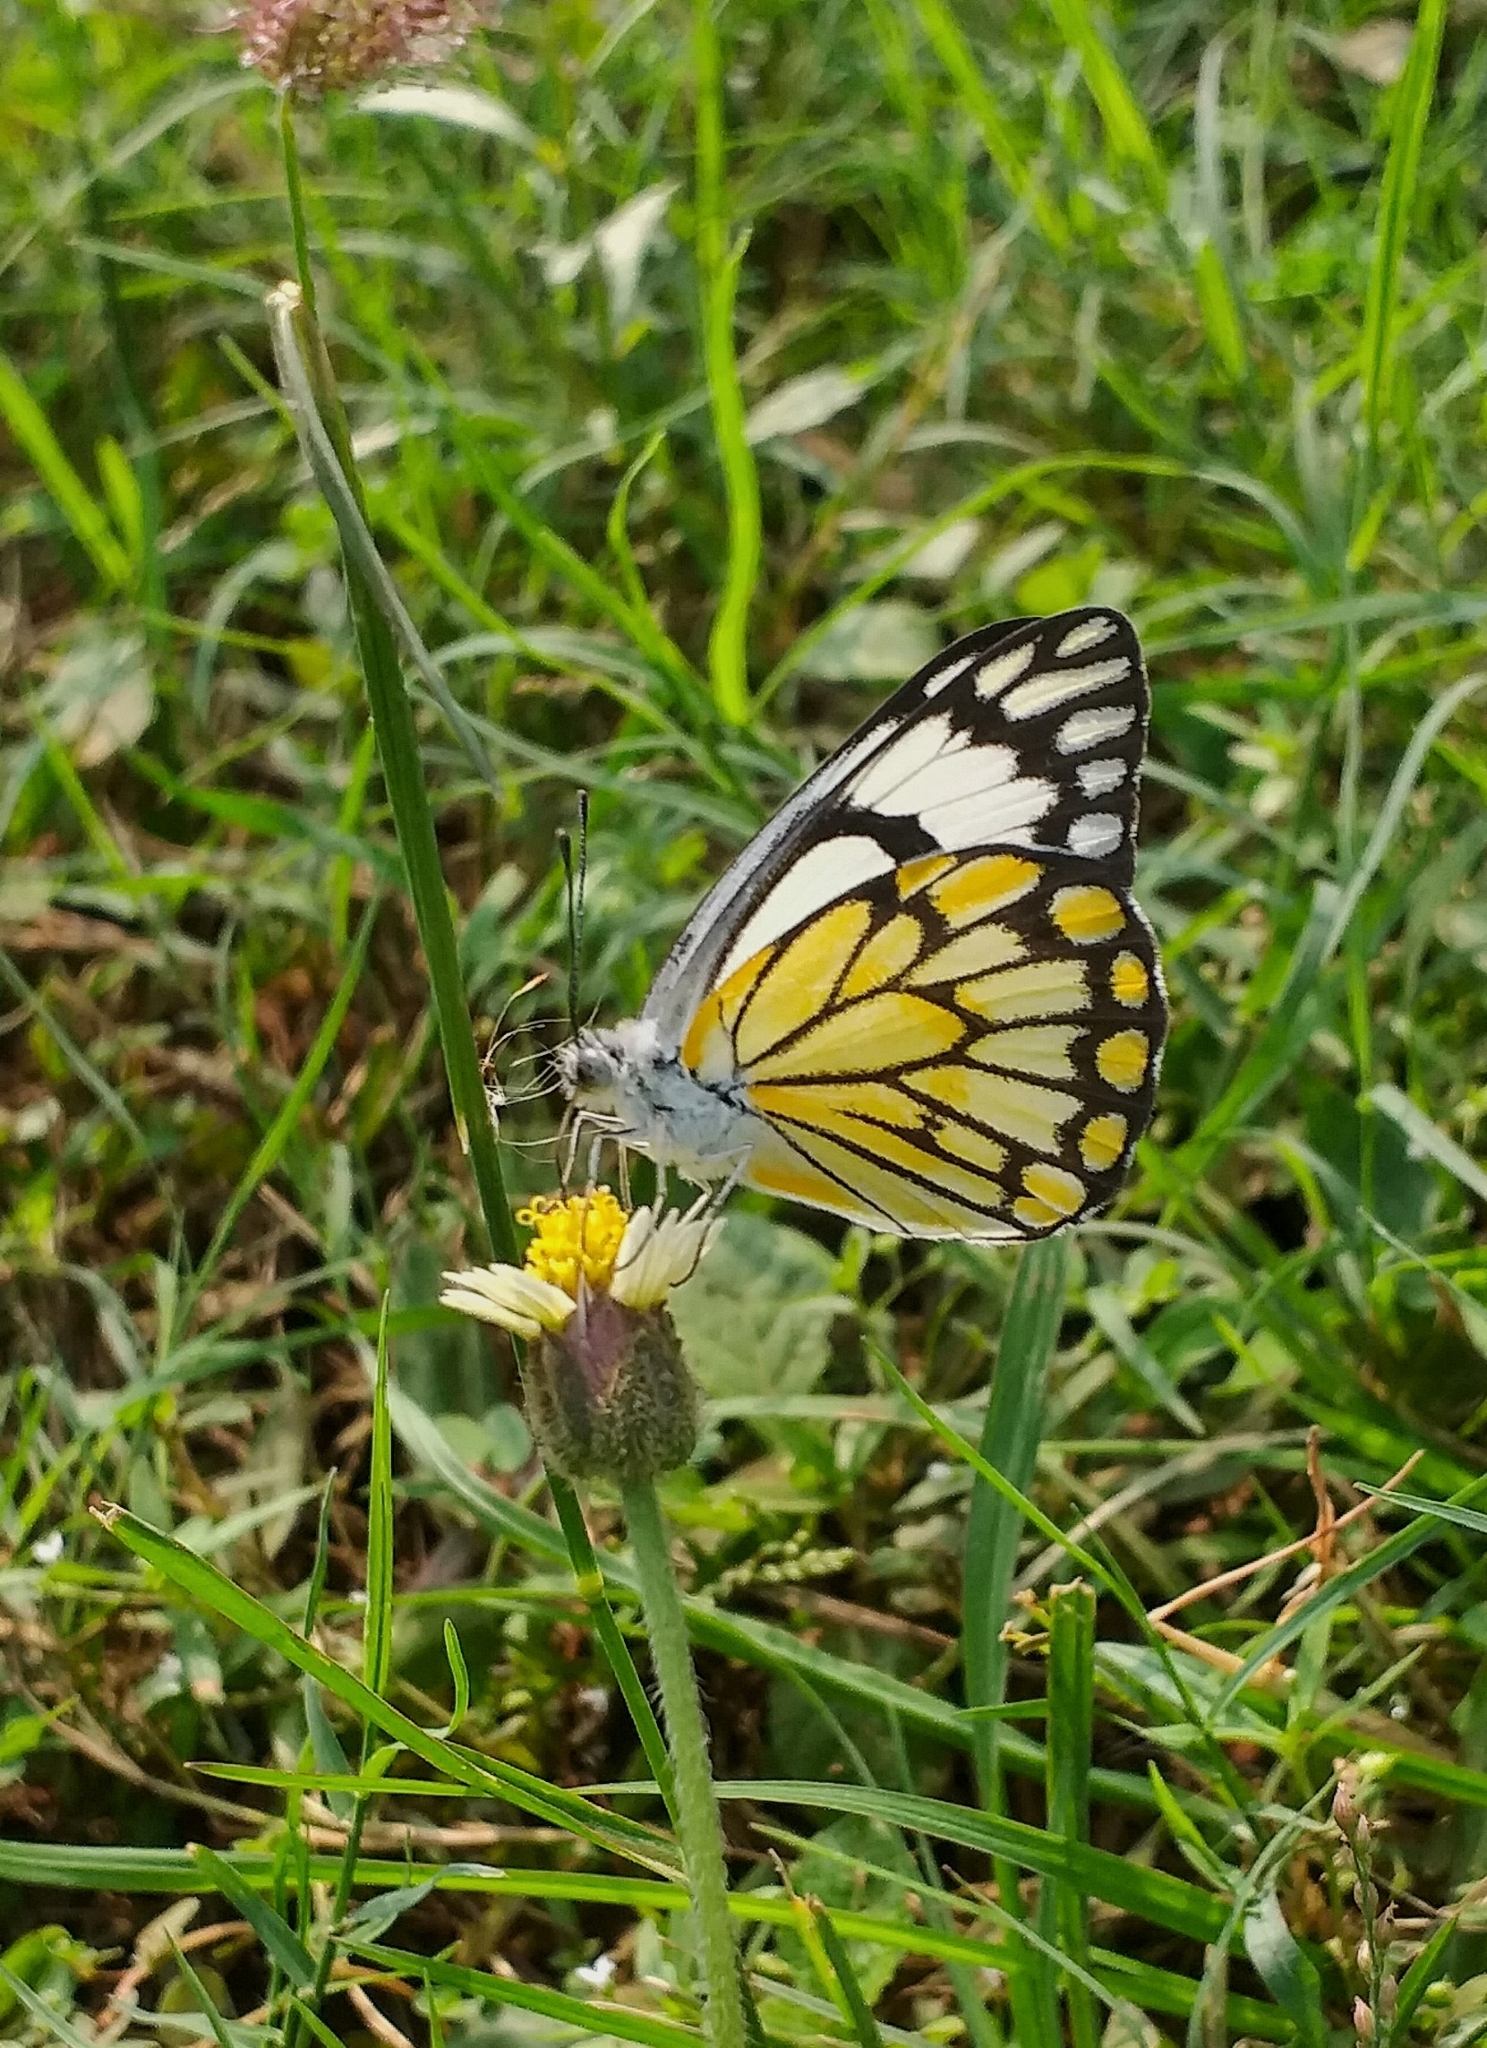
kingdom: Animalia
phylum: Arthropoda
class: Insecta
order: Lepidoptera
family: Pieridae
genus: Belenois
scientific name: Belenois aurota
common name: Brown-veined white
